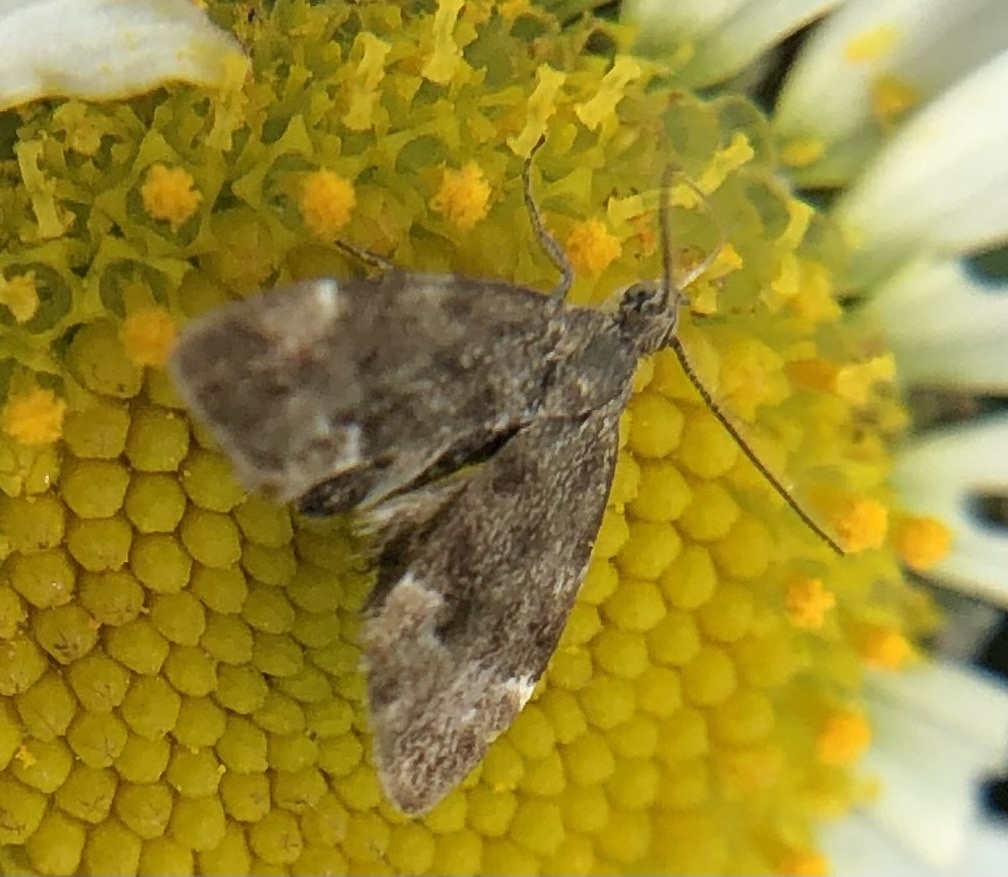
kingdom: Animalia
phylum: Arthropoda
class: Insecta
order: Lepidoptera
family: Choreutidae
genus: Anthophila
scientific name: Anthophila fabriciana
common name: Nettle-tap
